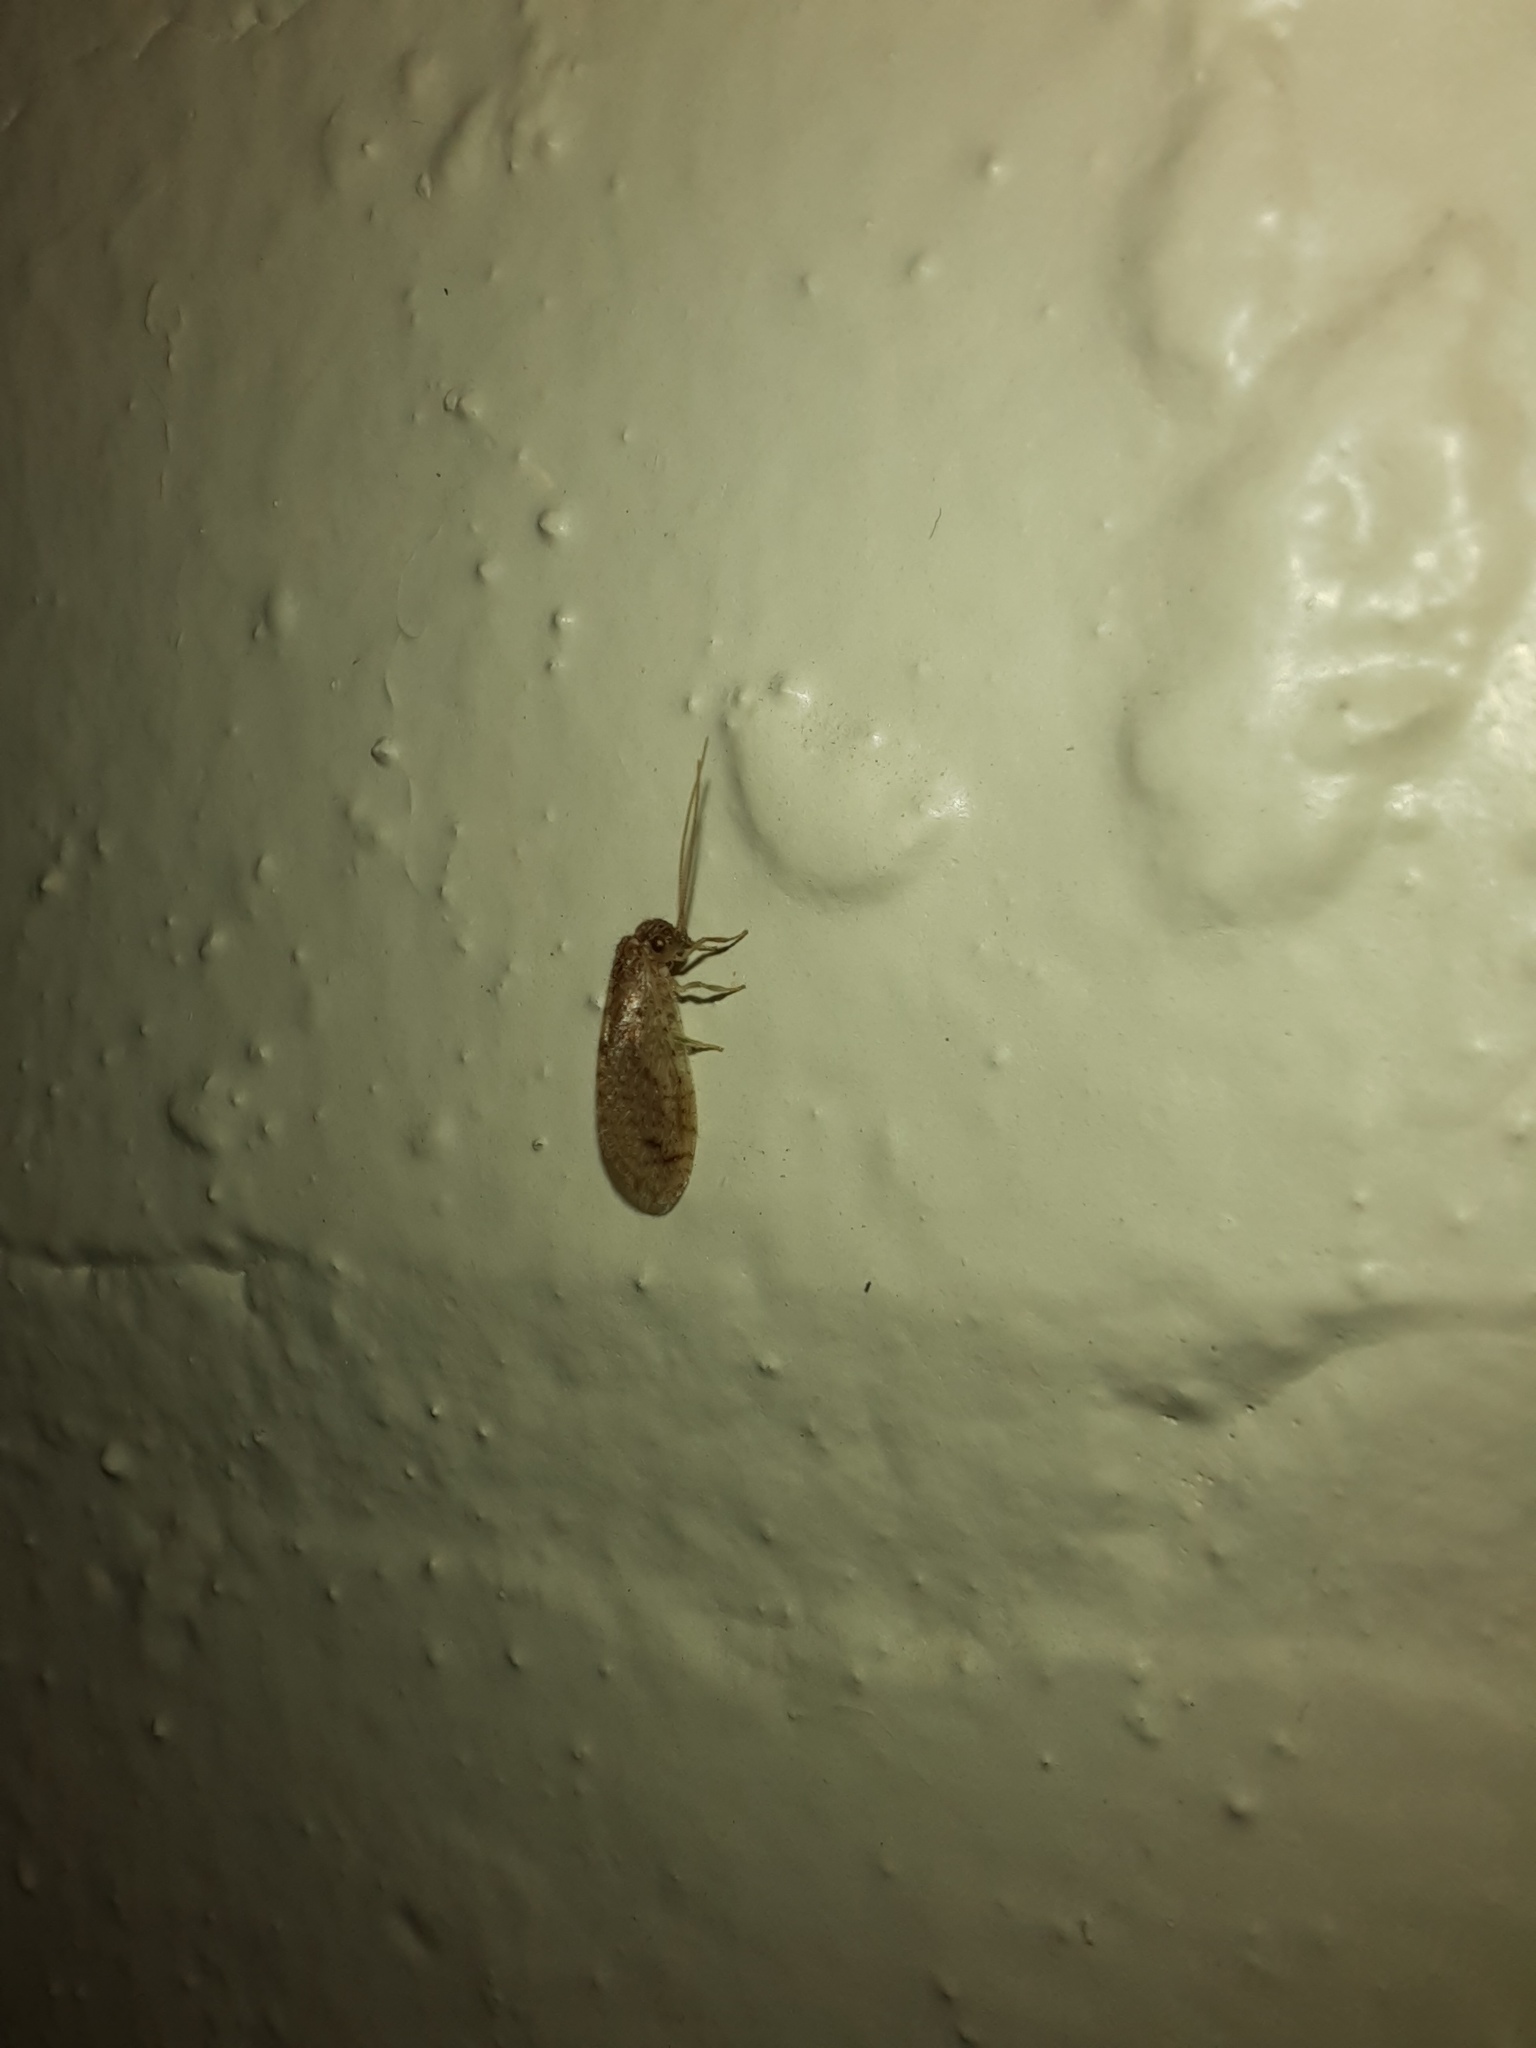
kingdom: Animalia
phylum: Arthropoda
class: Insecta
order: Neuroptera
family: Hemerobiidae
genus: Micromus
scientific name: Micromus tasmaniae
